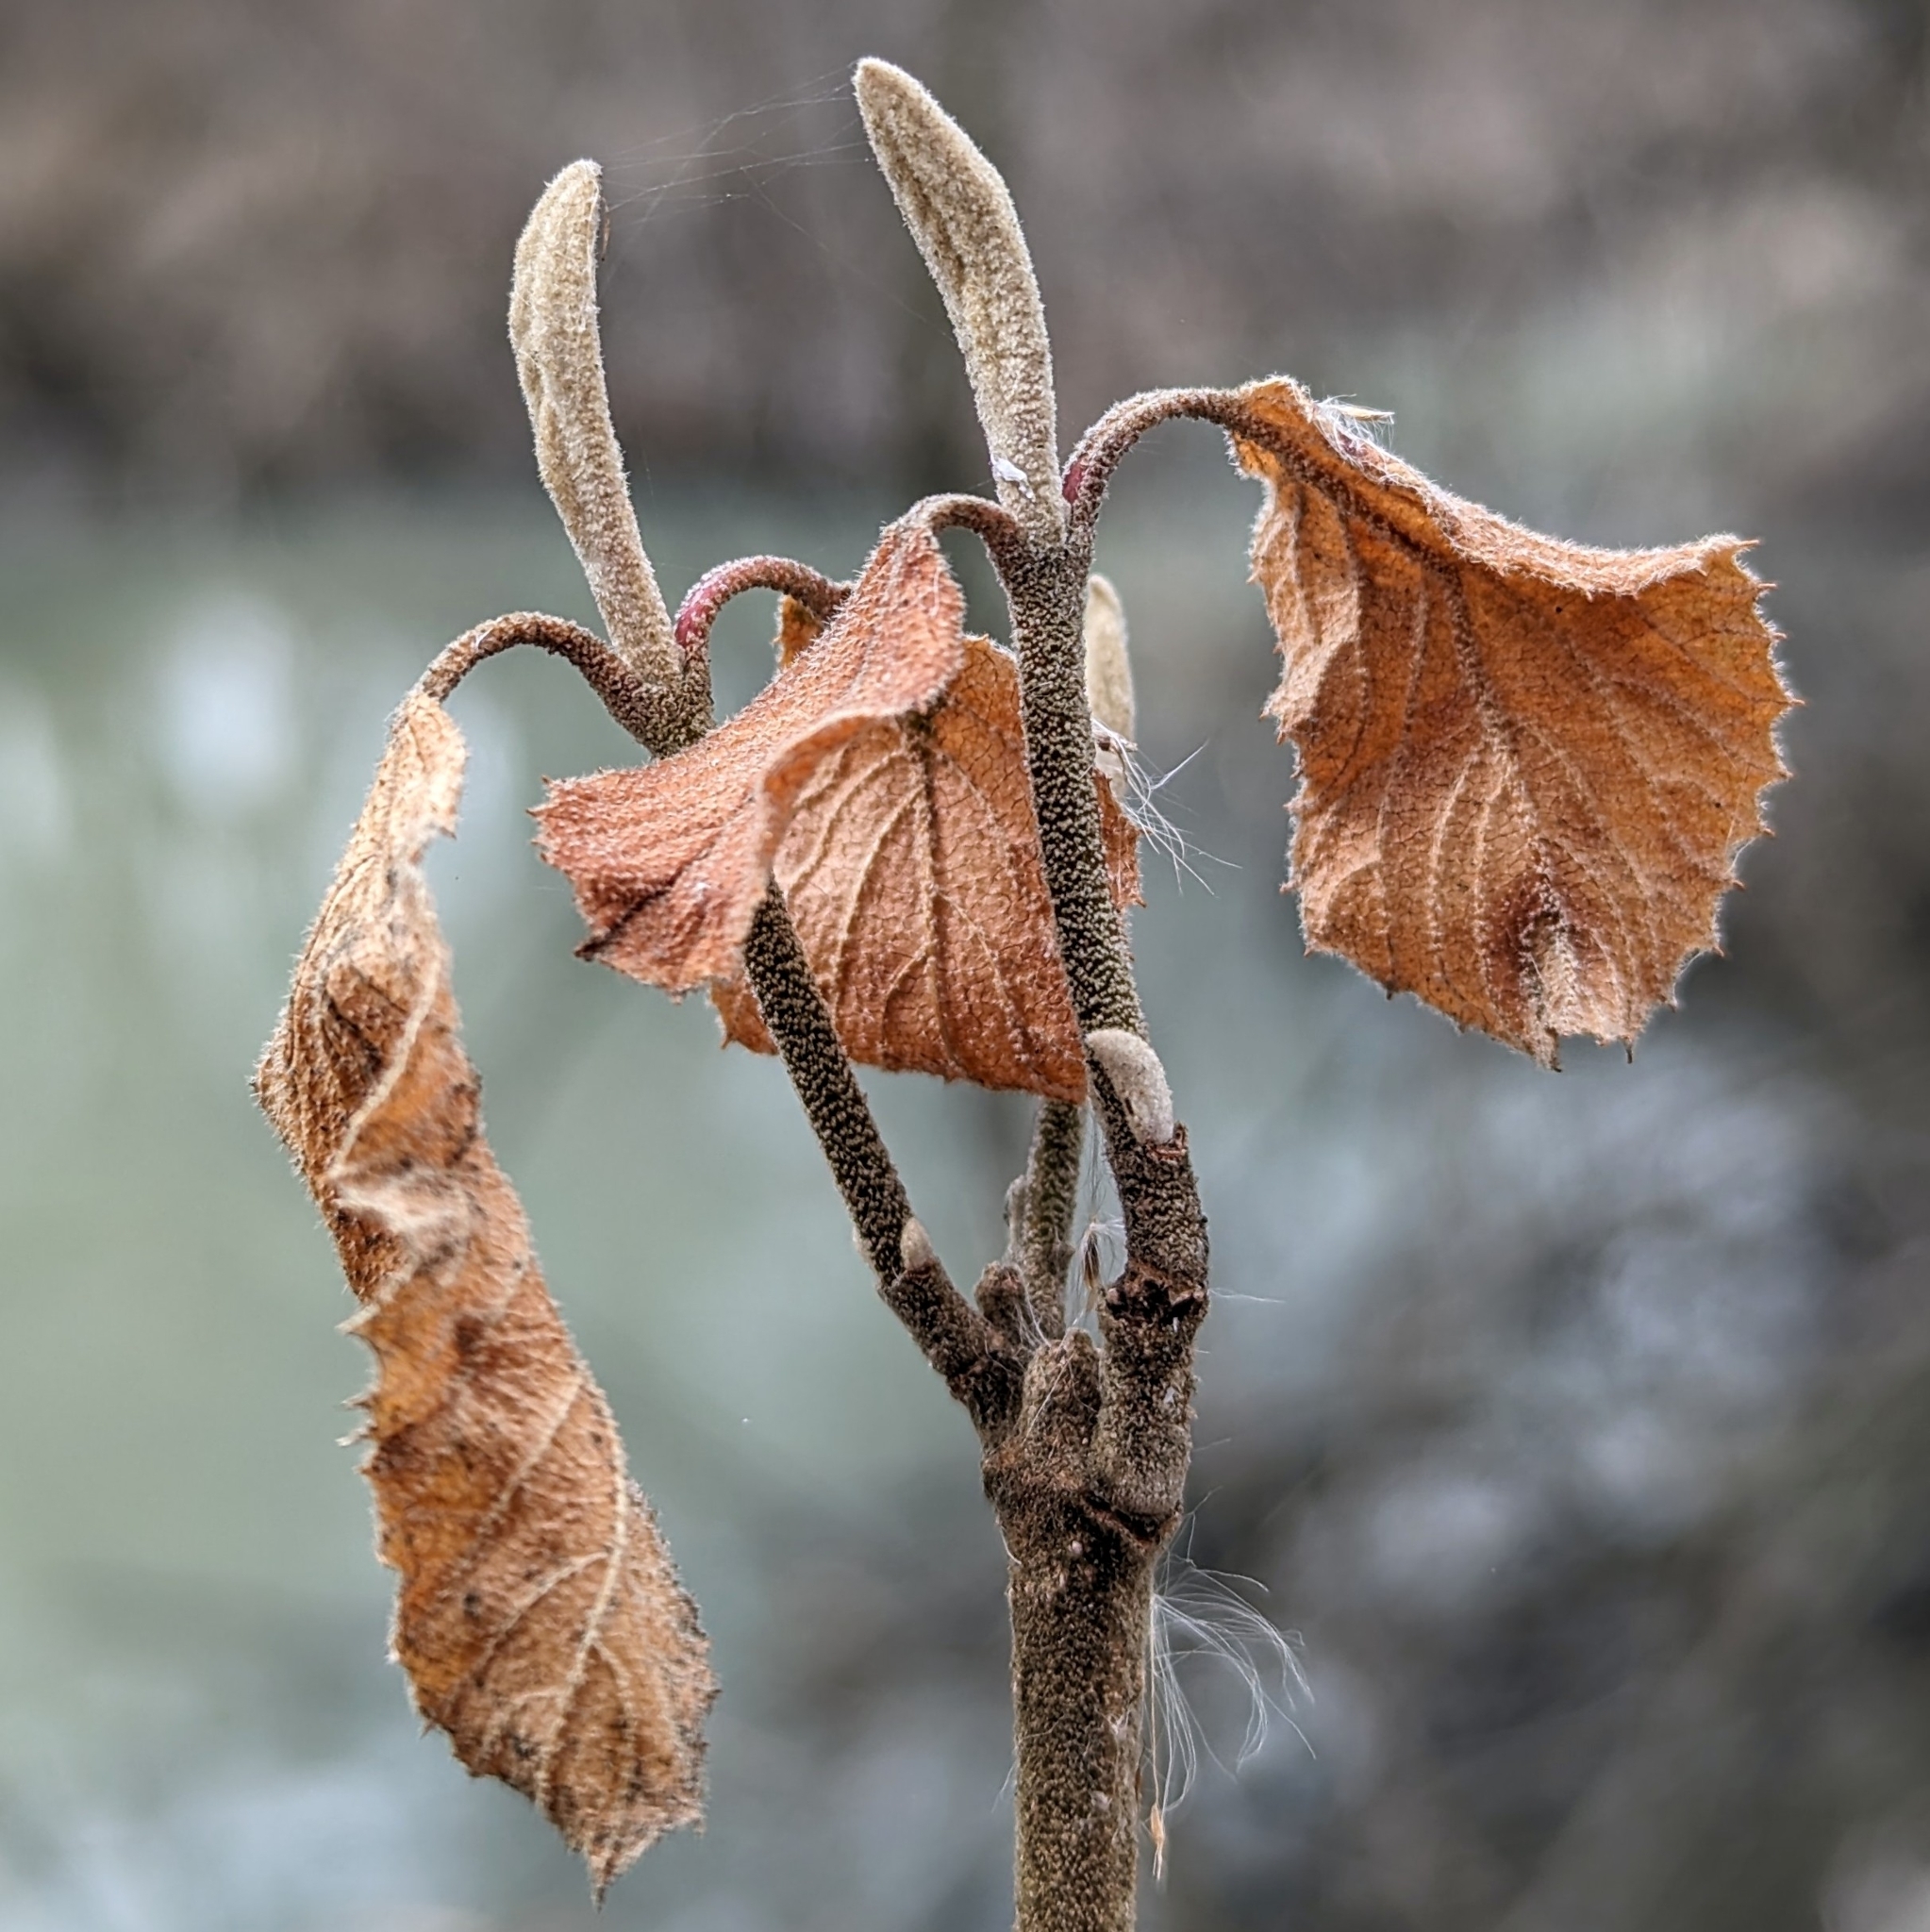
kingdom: Plantae
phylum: Tracheophyta
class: Magnoliopsida
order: Dipsacales
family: Viburnaceae
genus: Viburnum
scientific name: Viburnum lantanoides
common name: Hobblebush
